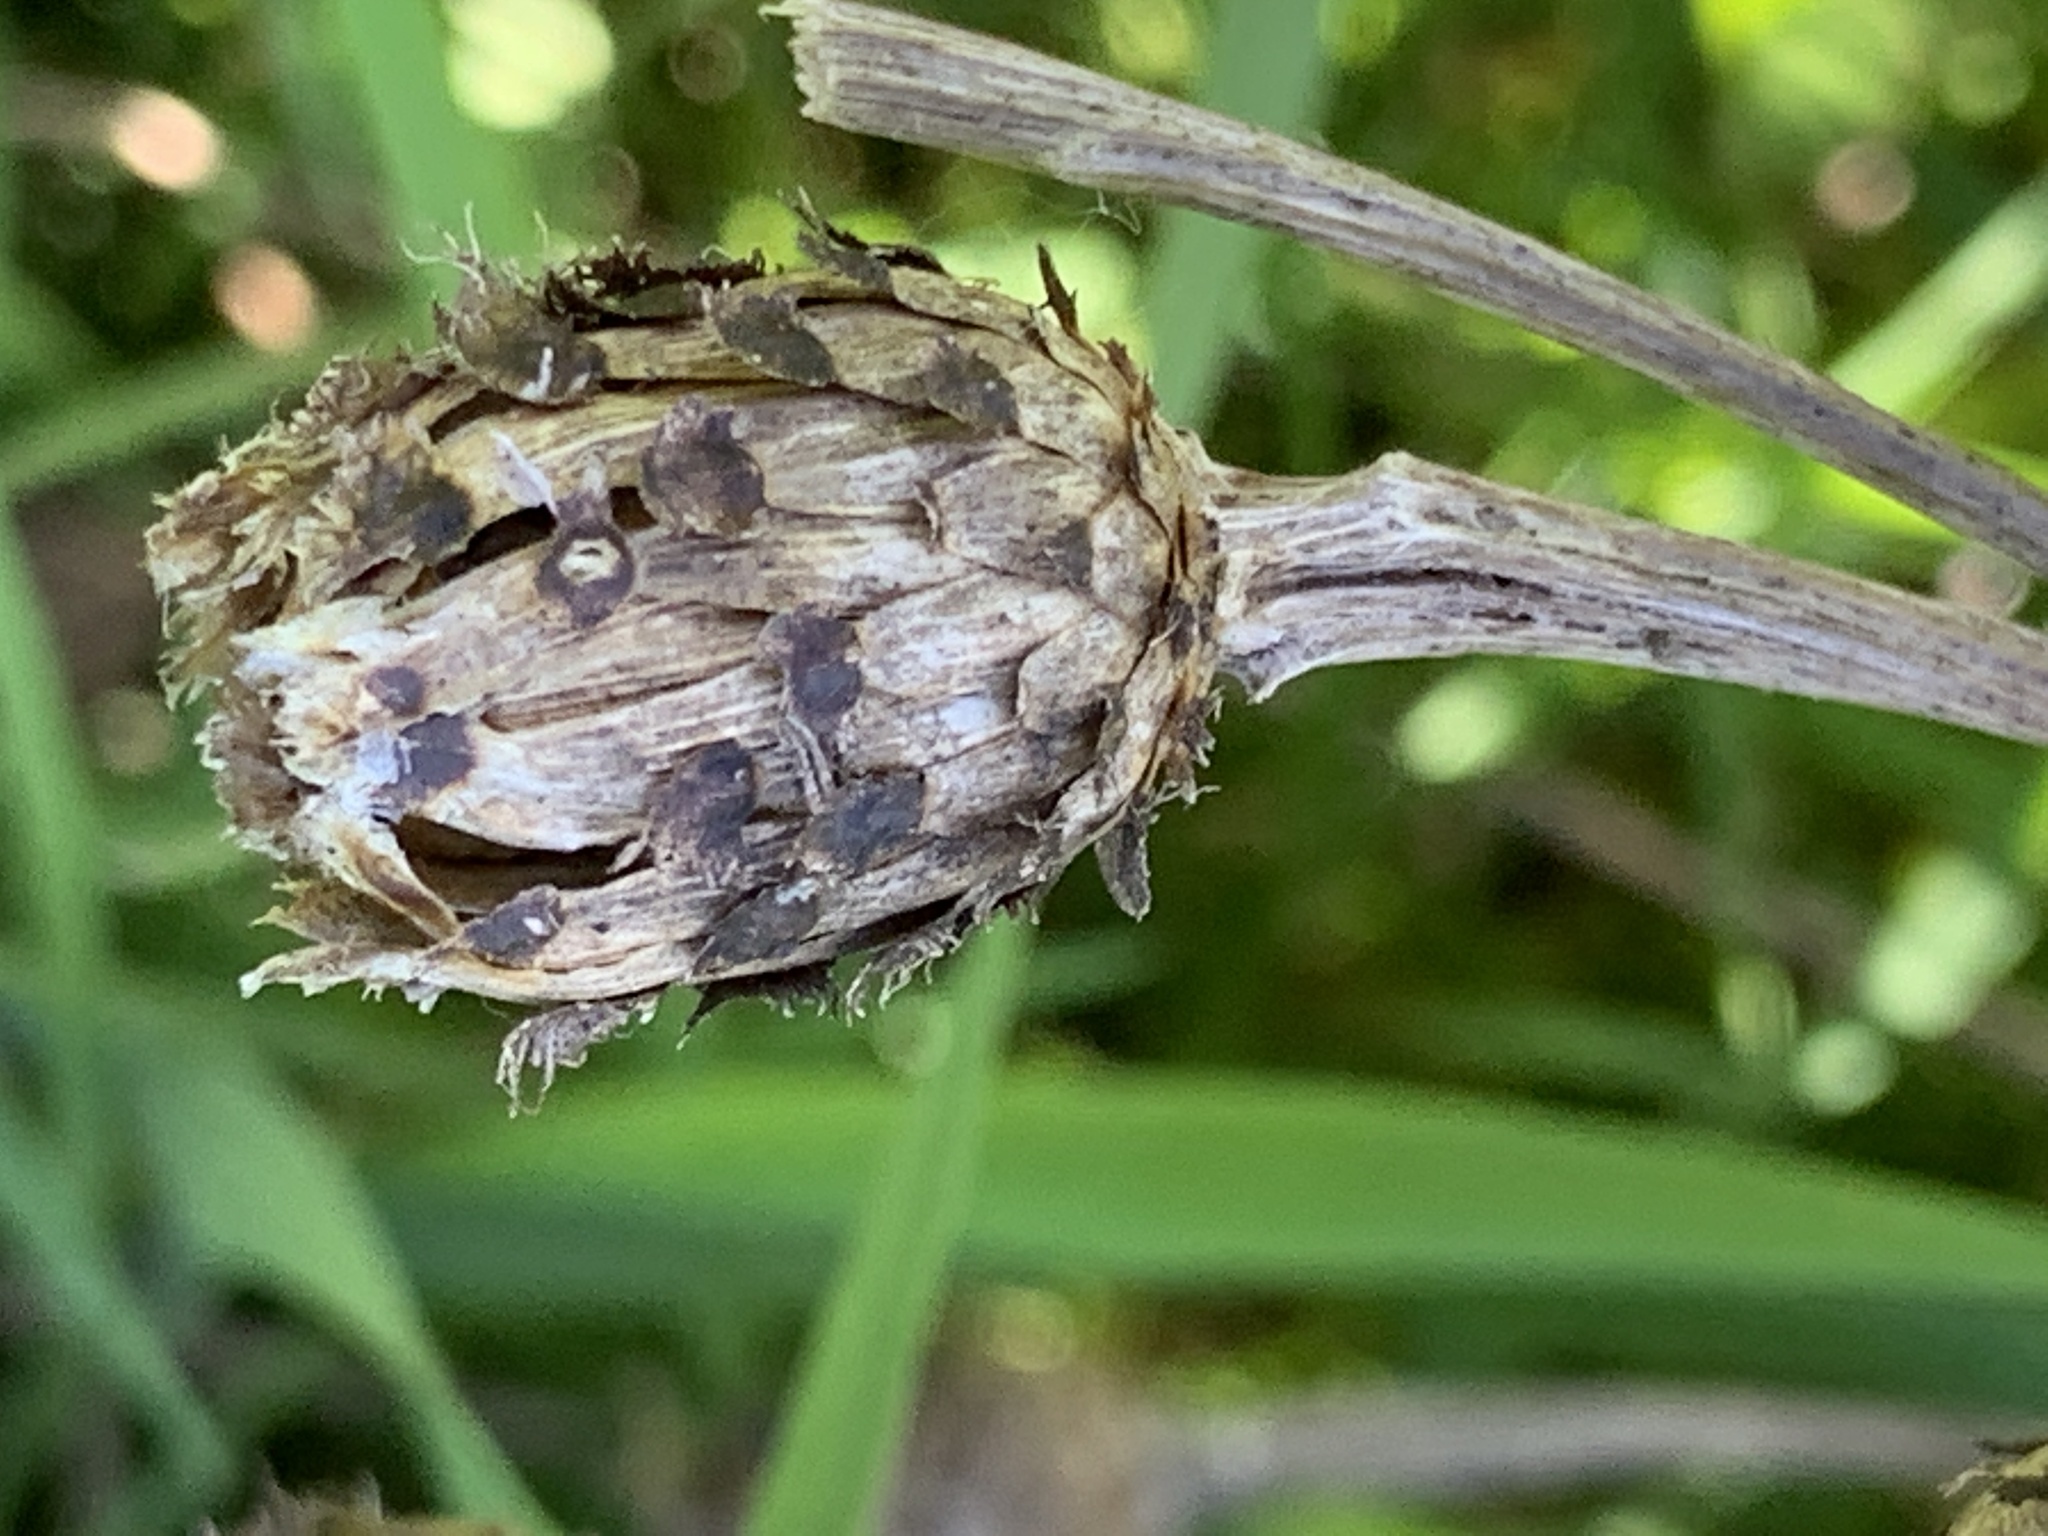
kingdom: Plantae
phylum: Tracheophyta
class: Magnoliopsida
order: Asterales
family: Asteraceae
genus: Centaurea
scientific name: Centaurea nigra
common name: Lesser knapweed
